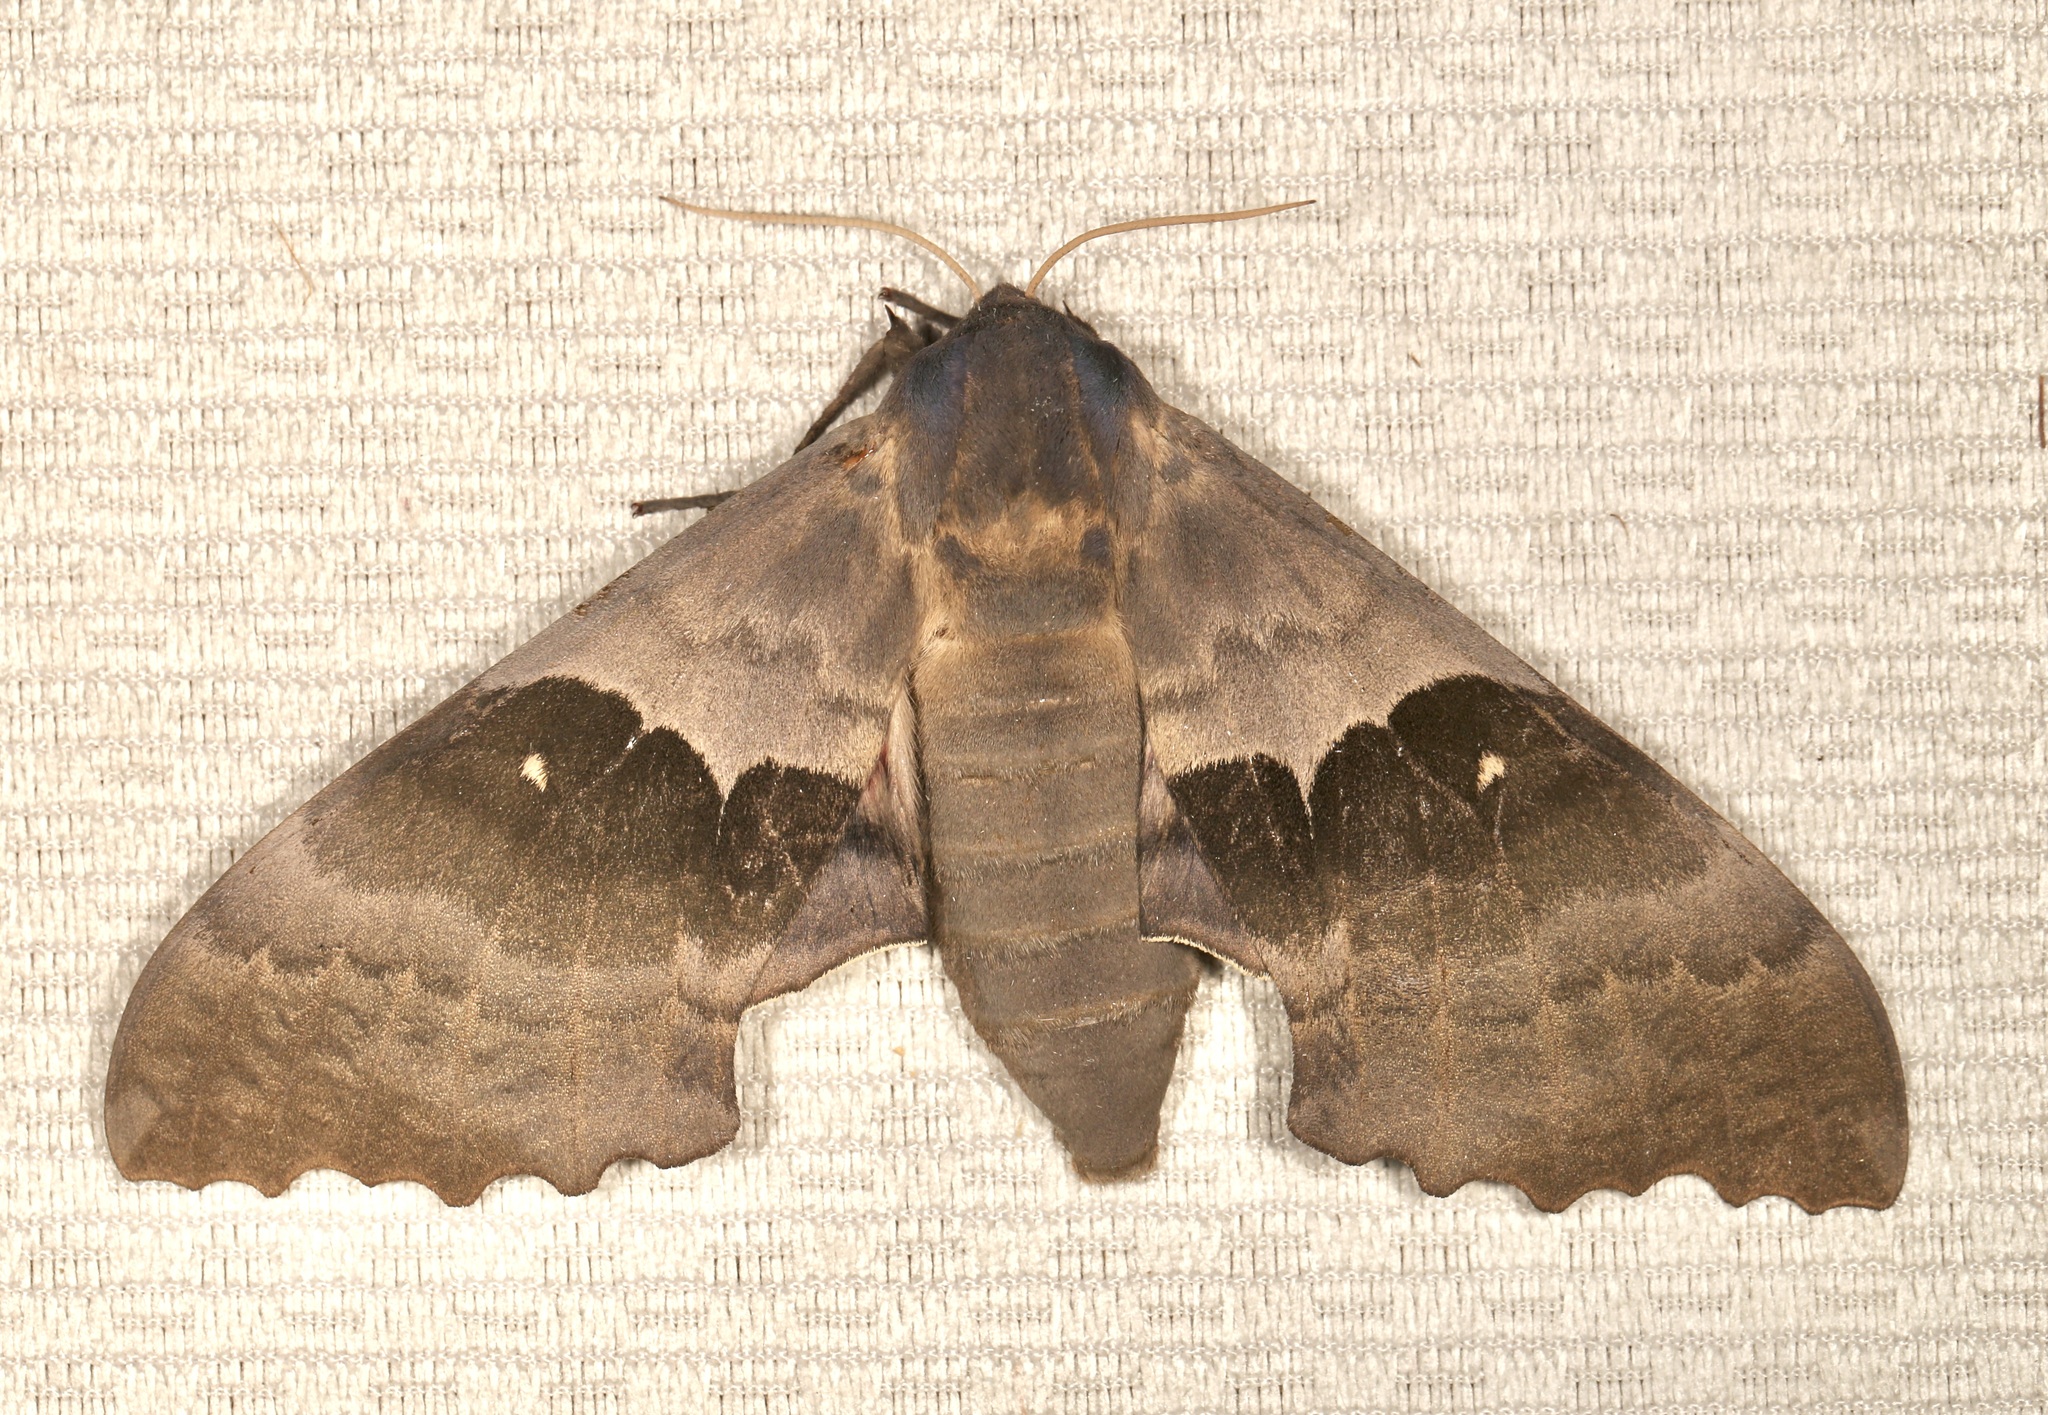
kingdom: Animalia
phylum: Arthropoda
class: Insecta
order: Lepidoptera
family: Sphingidae
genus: Pachysphinx
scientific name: Pachysphinx modesta
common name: Big poplar sphinx
